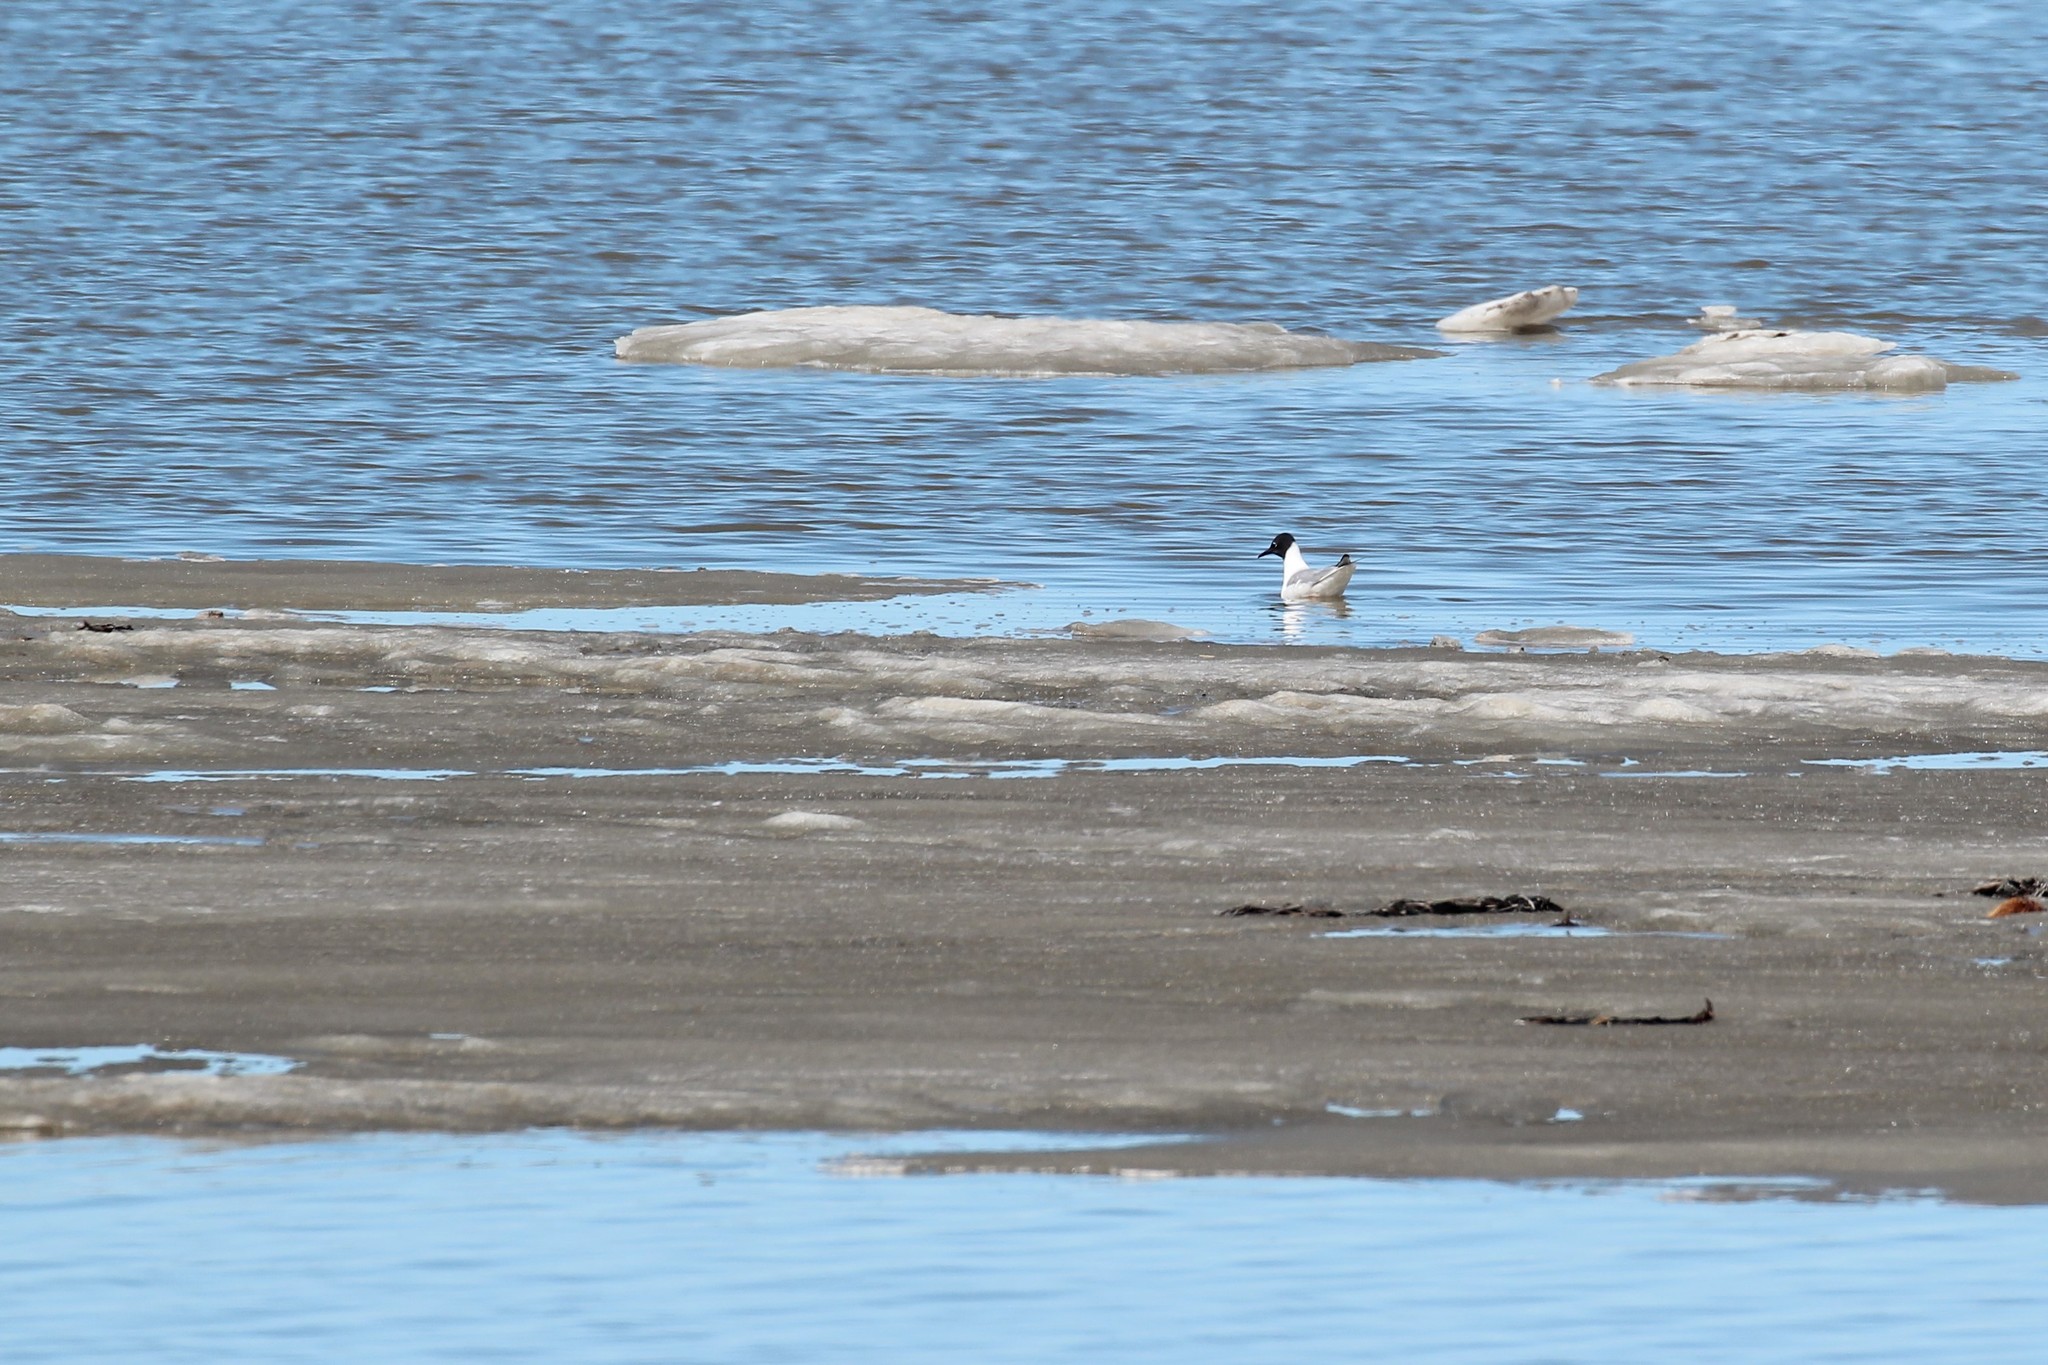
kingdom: Animalia
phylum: Chordata
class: Aves
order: Charadriiformes
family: Laridae
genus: Chroicocephalus
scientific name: Chroicocephalus philadelphia
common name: Bonaparte's gull
